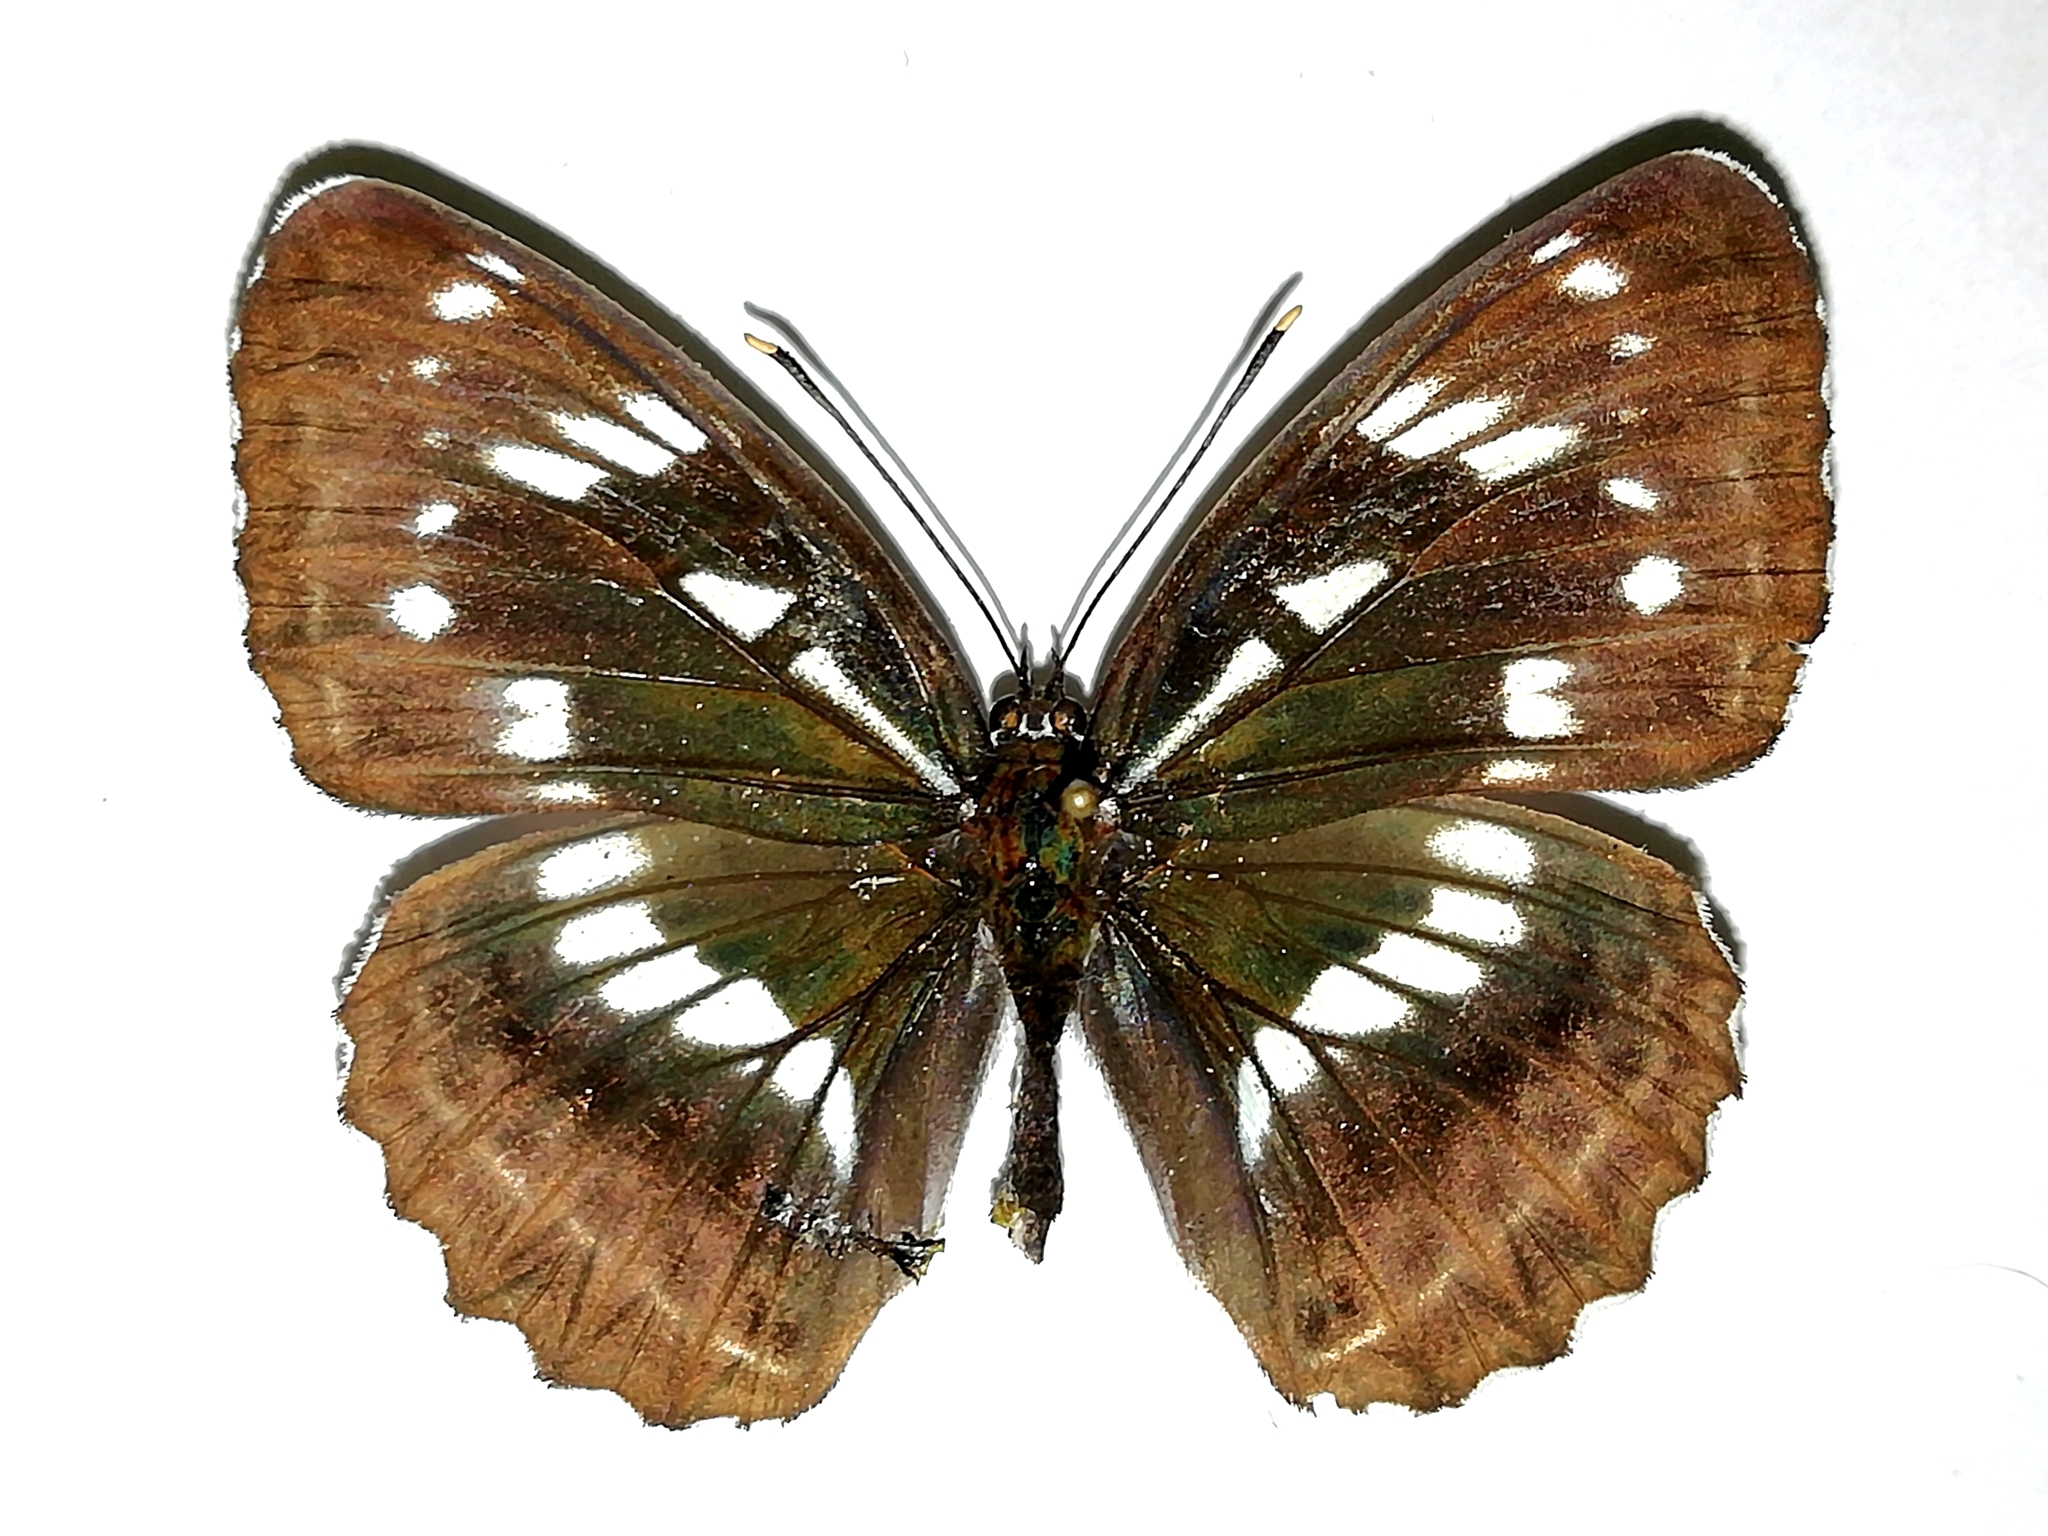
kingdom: Animalia
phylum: Arthropoda
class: Insecta
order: Lepidoptera
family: Nymphalidae
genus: Limenitis
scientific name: Limenitis helmanni
